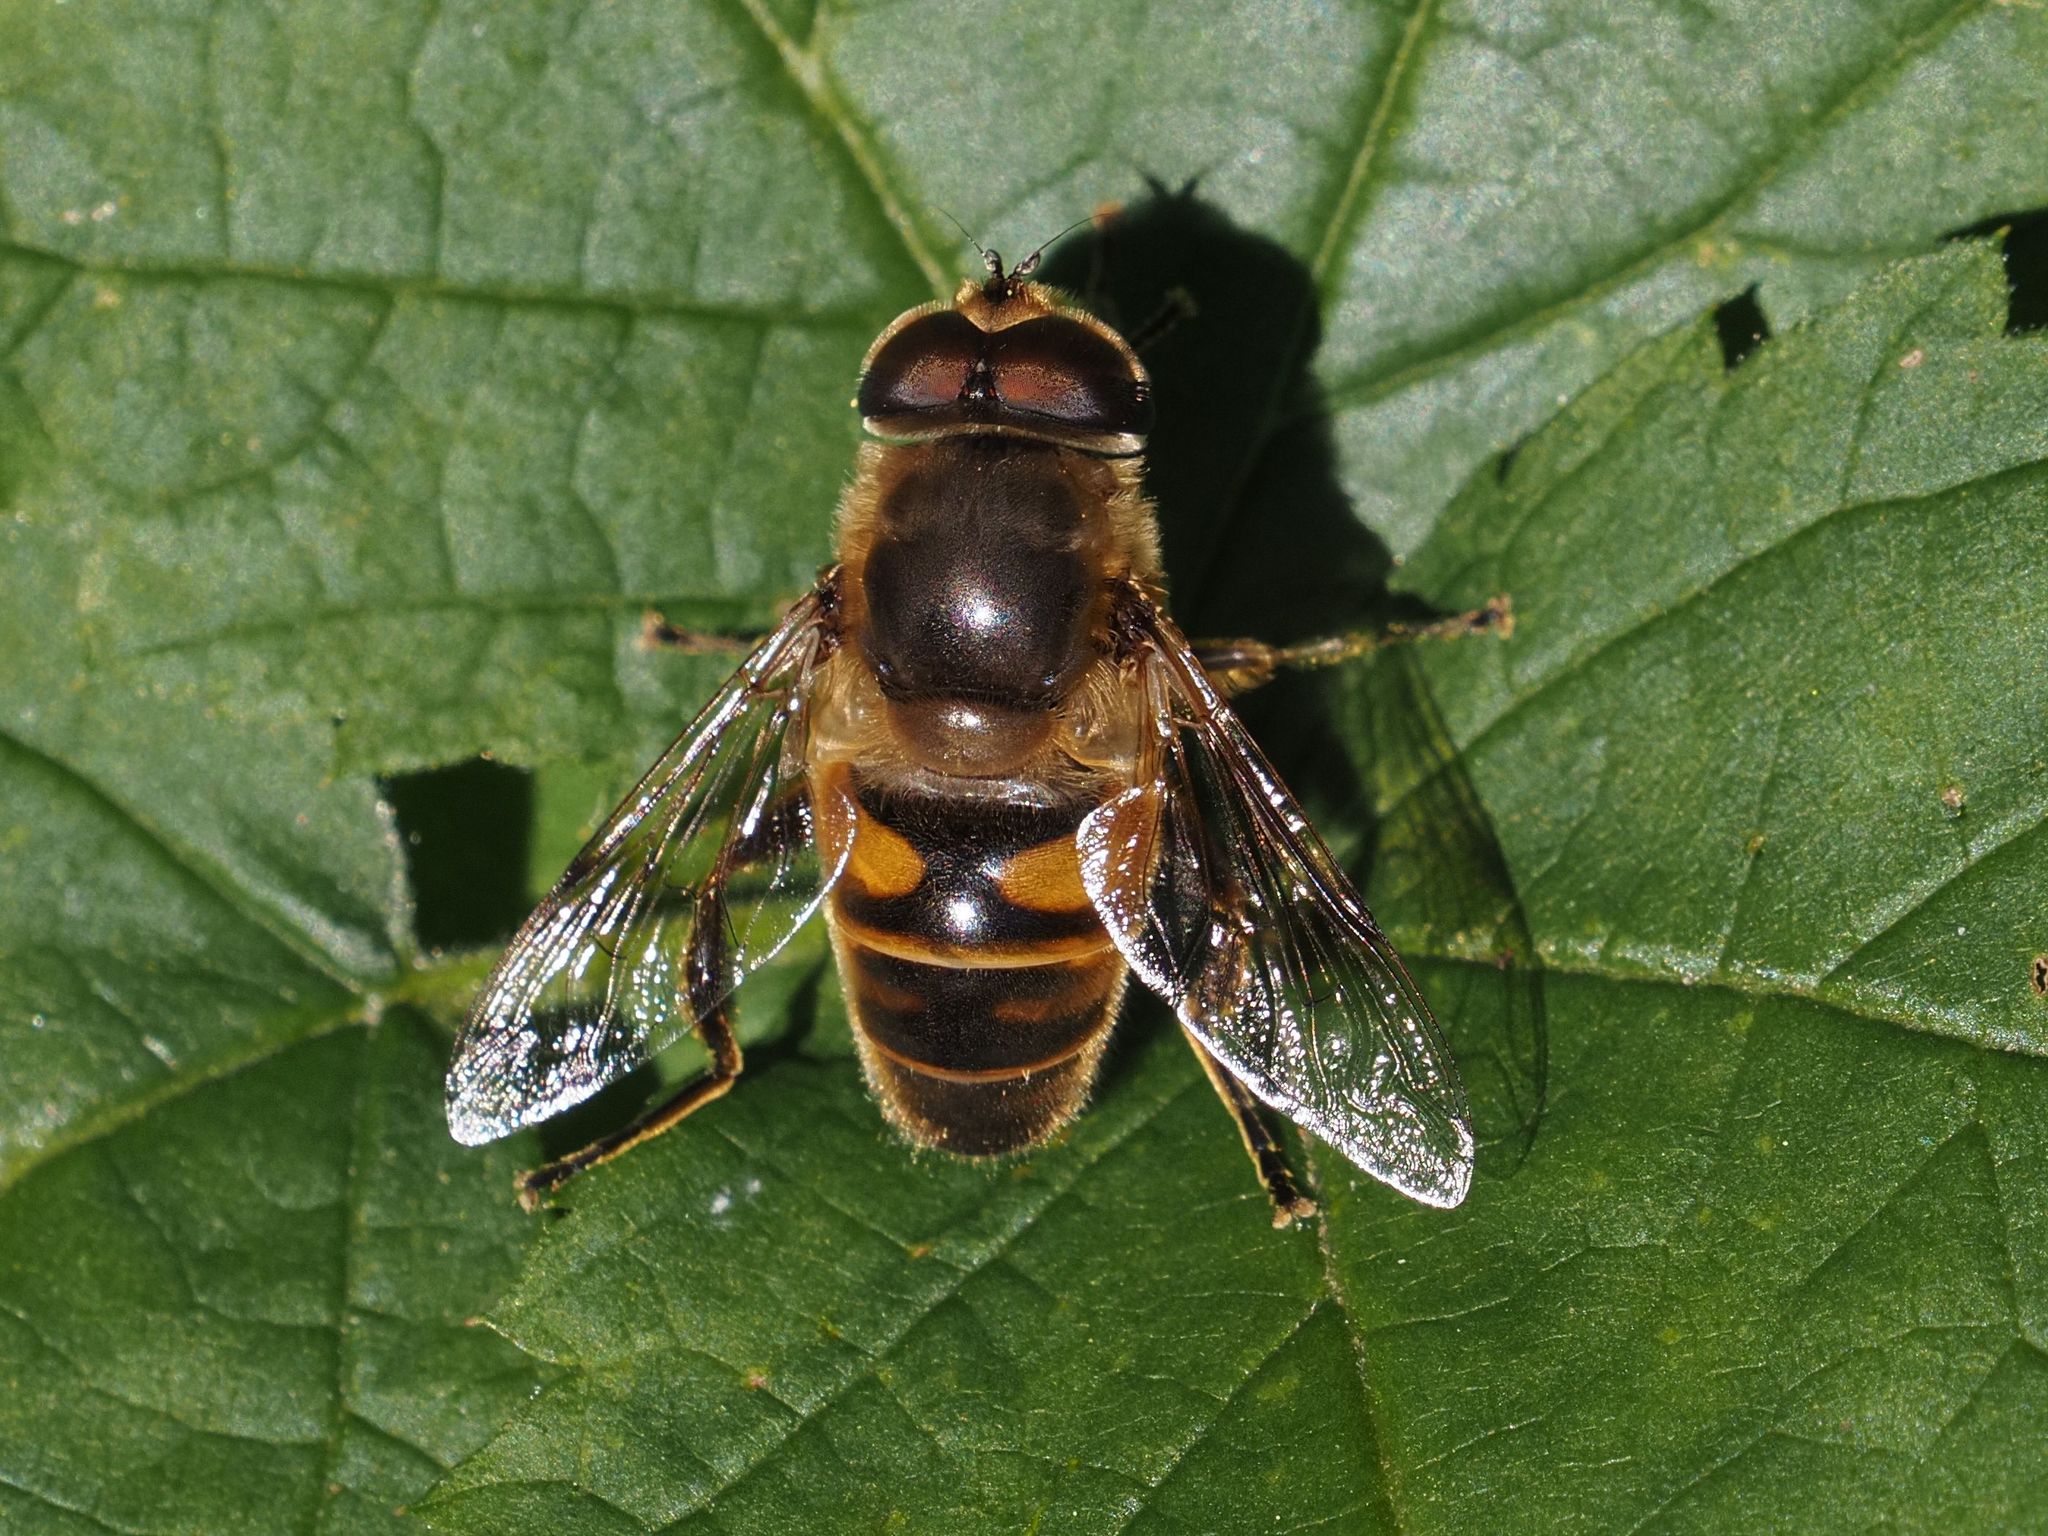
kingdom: Animalia
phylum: Arthropoda
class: Insecta
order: Diptera
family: Syrphidae
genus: Eristalis
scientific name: Eristalis tenax
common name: Drone fly
